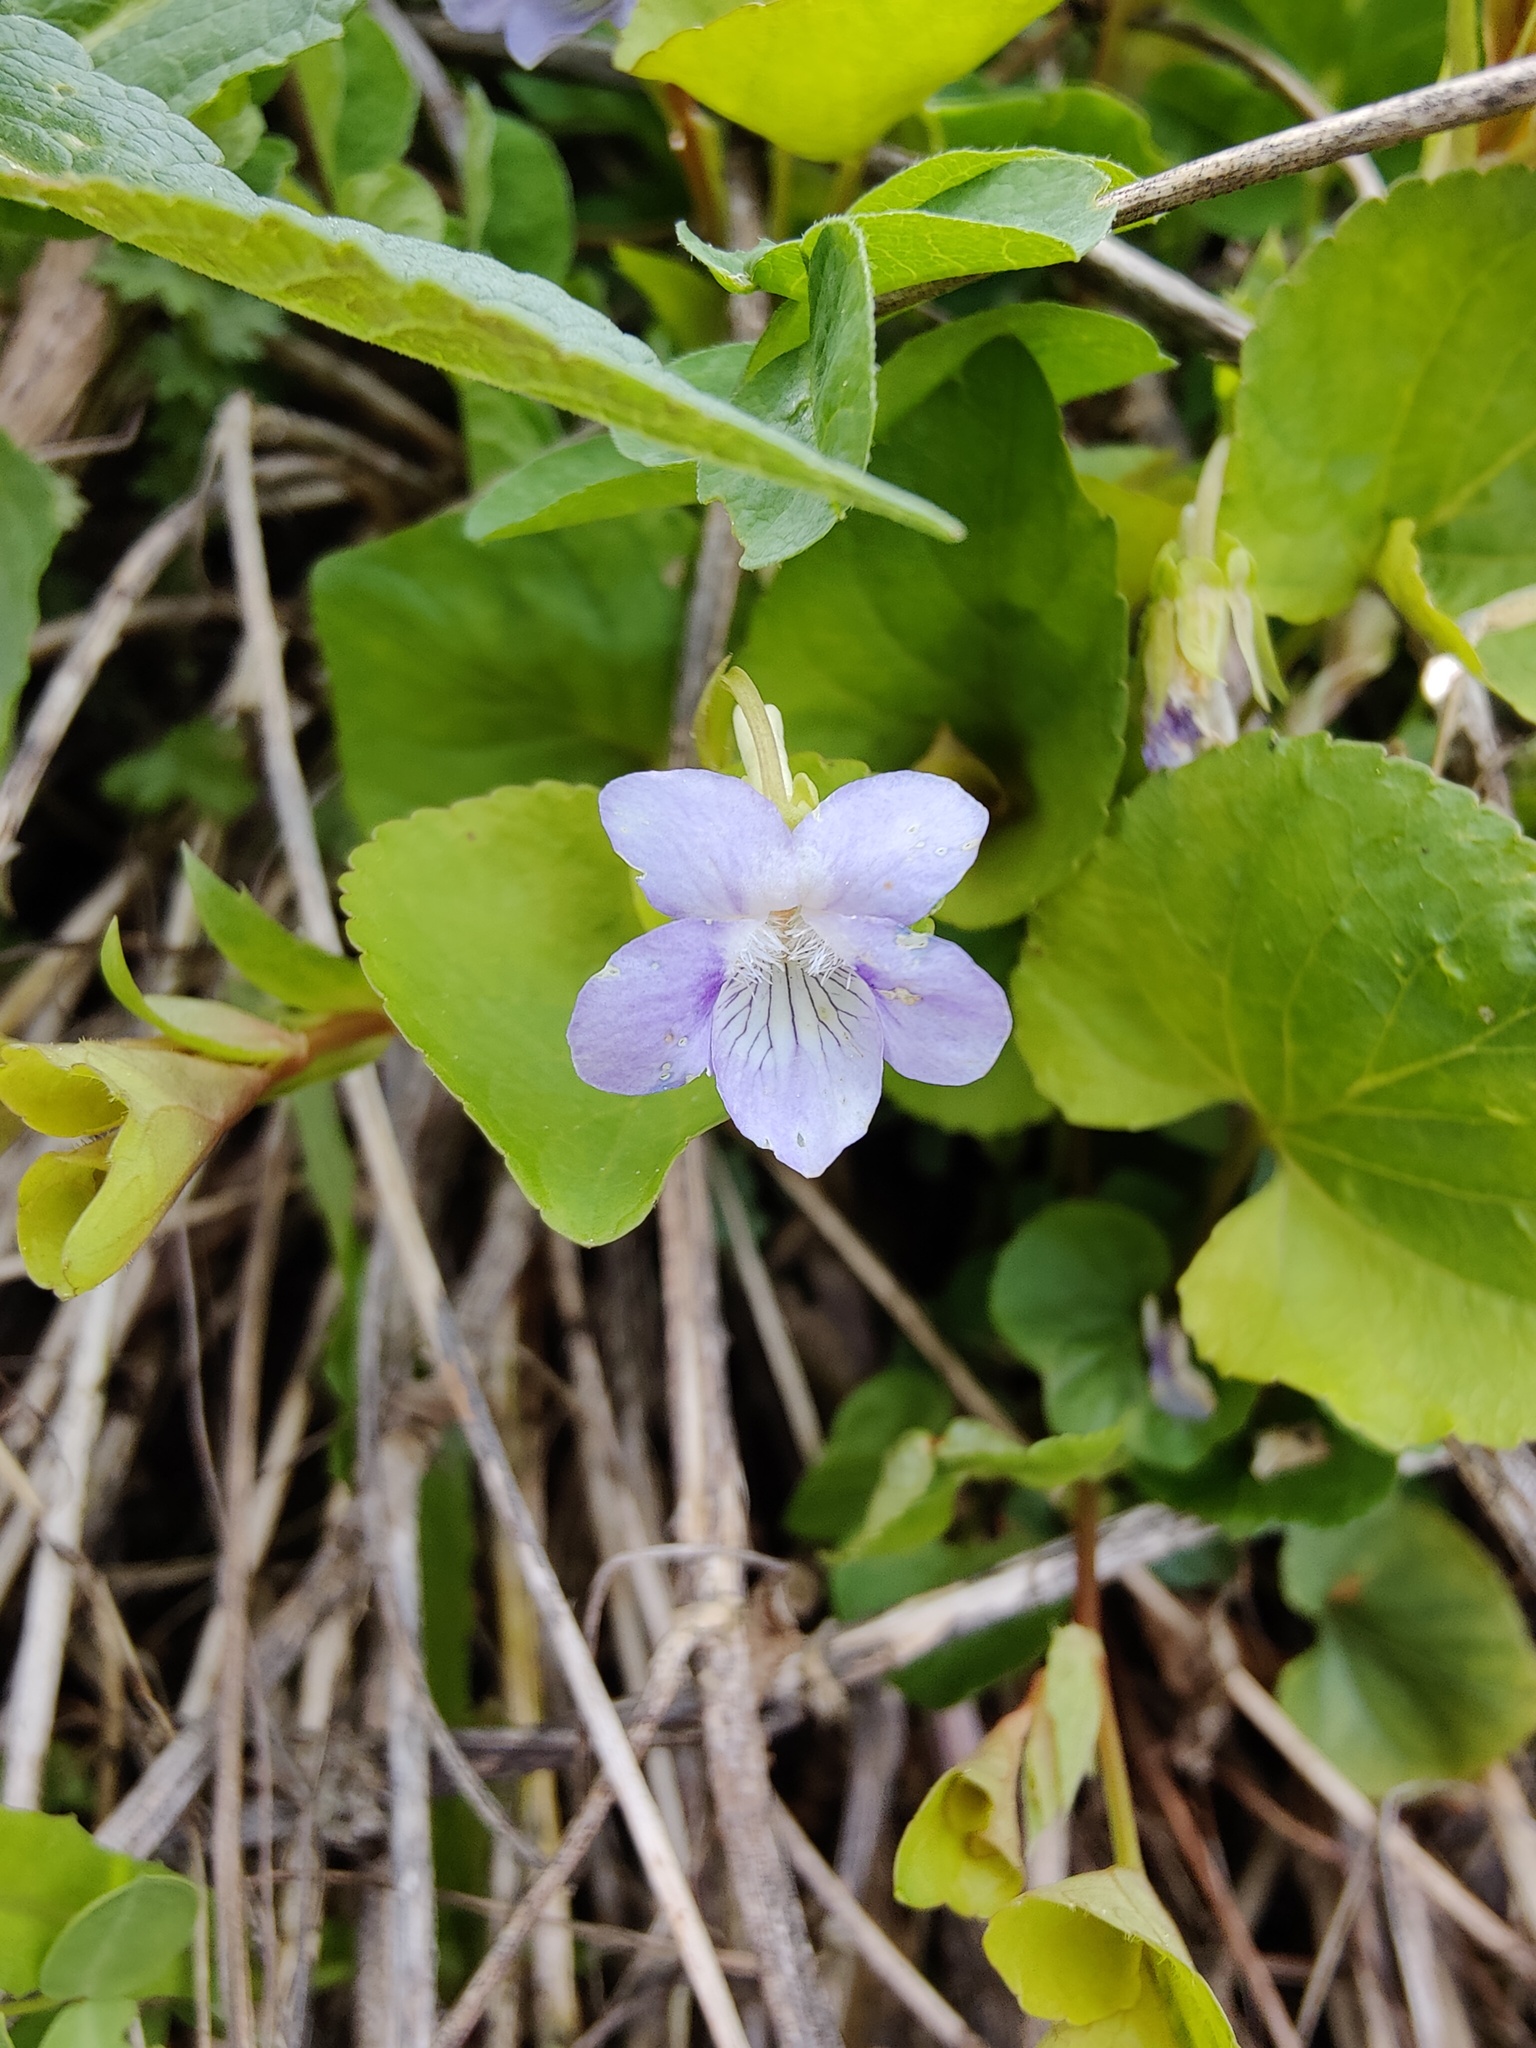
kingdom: Plantae
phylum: Tracheophyta
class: Magnoliopsida
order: Malpighiales
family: Violaceae
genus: Viola
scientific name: Viola tanaitica
